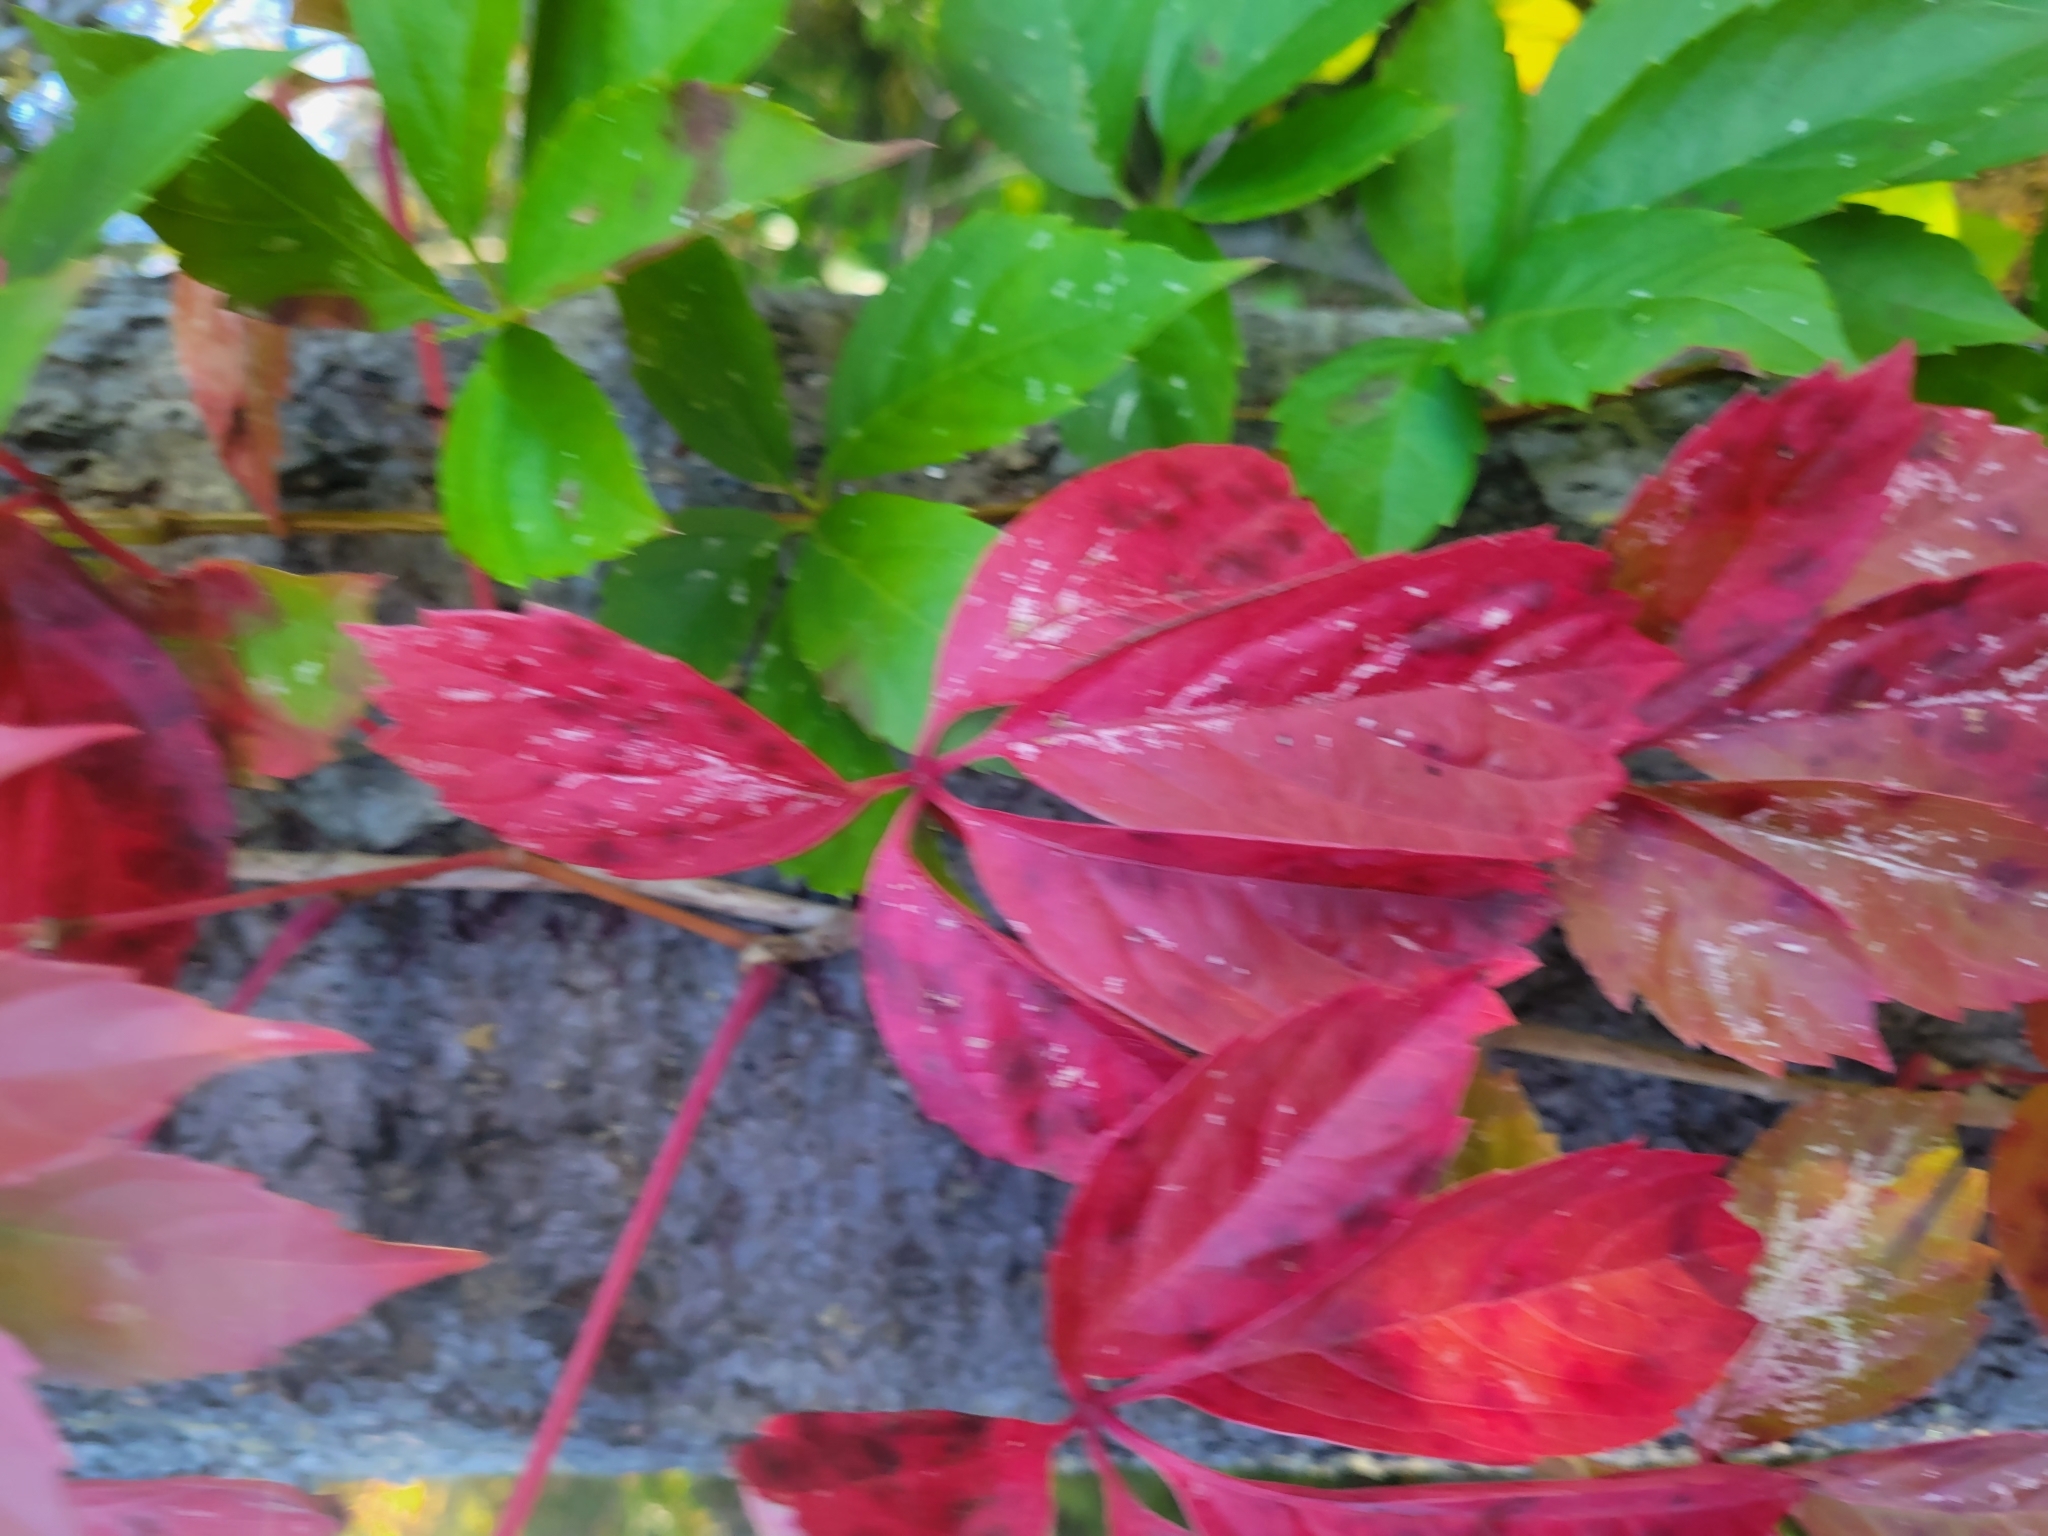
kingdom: Plantae
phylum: Tracheophyta
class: Magnoliopsida
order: Vitales
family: Vitaceae
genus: Parthenocissus
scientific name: Parthenocissus quinquefolia
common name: Virginia-creeper
